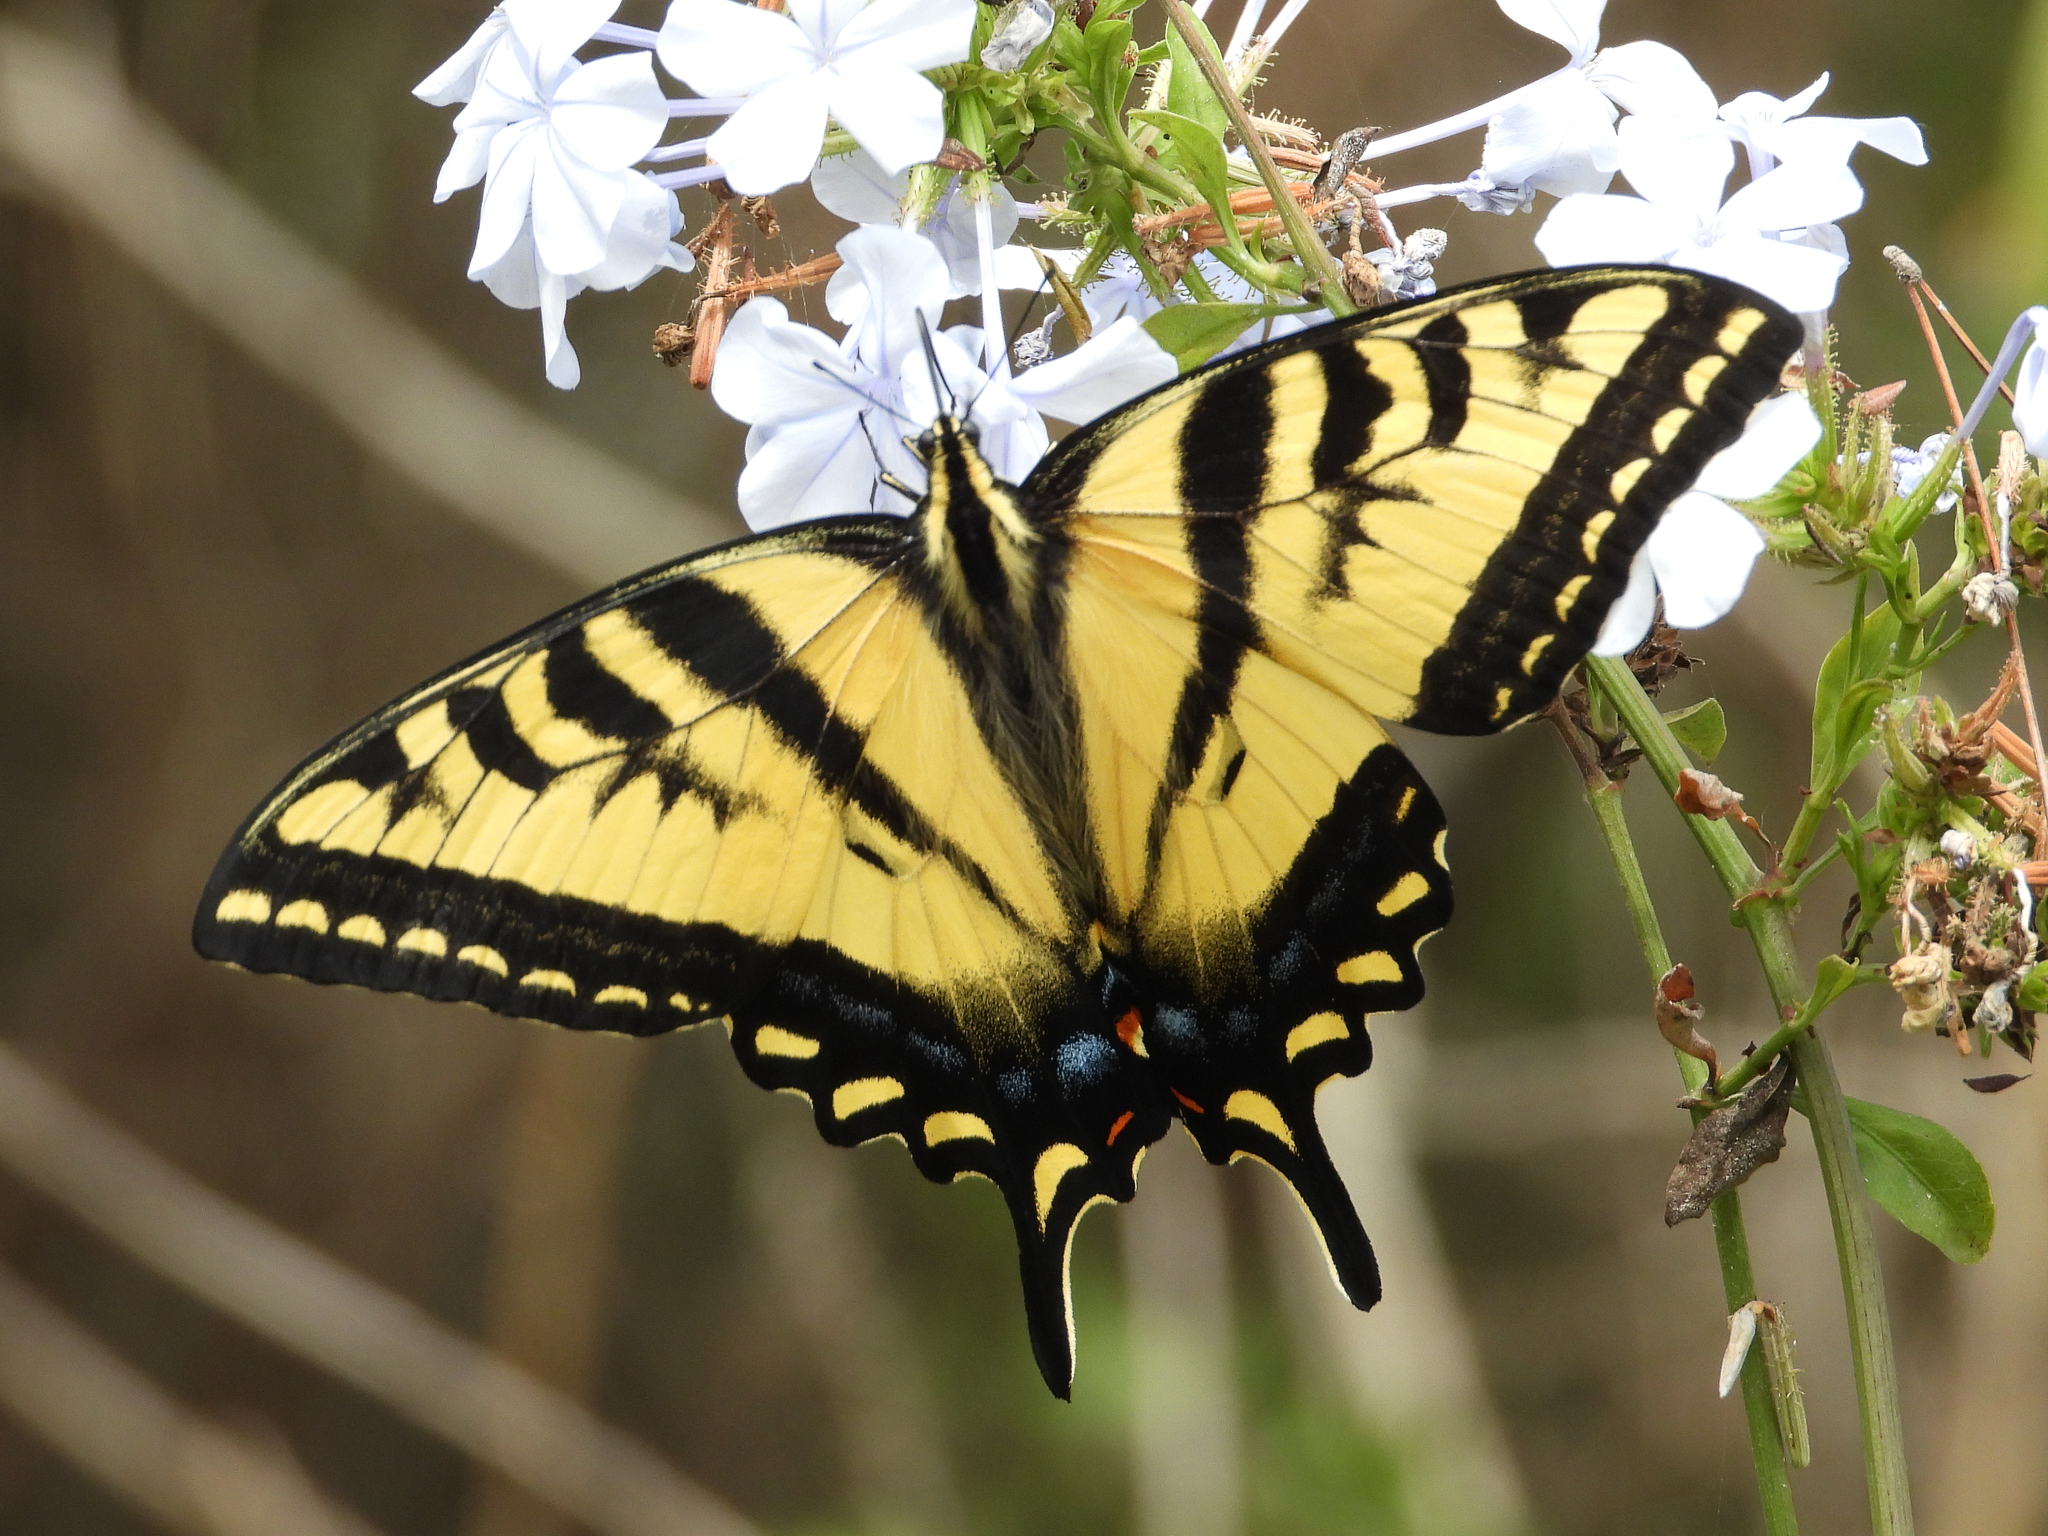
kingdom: Animalia
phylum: Arthropoda
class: Insecta
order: Lepidoptera
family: Papilionidae
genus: Papilio
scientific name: Papilio rutulus
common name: Western tiger swallowtail
